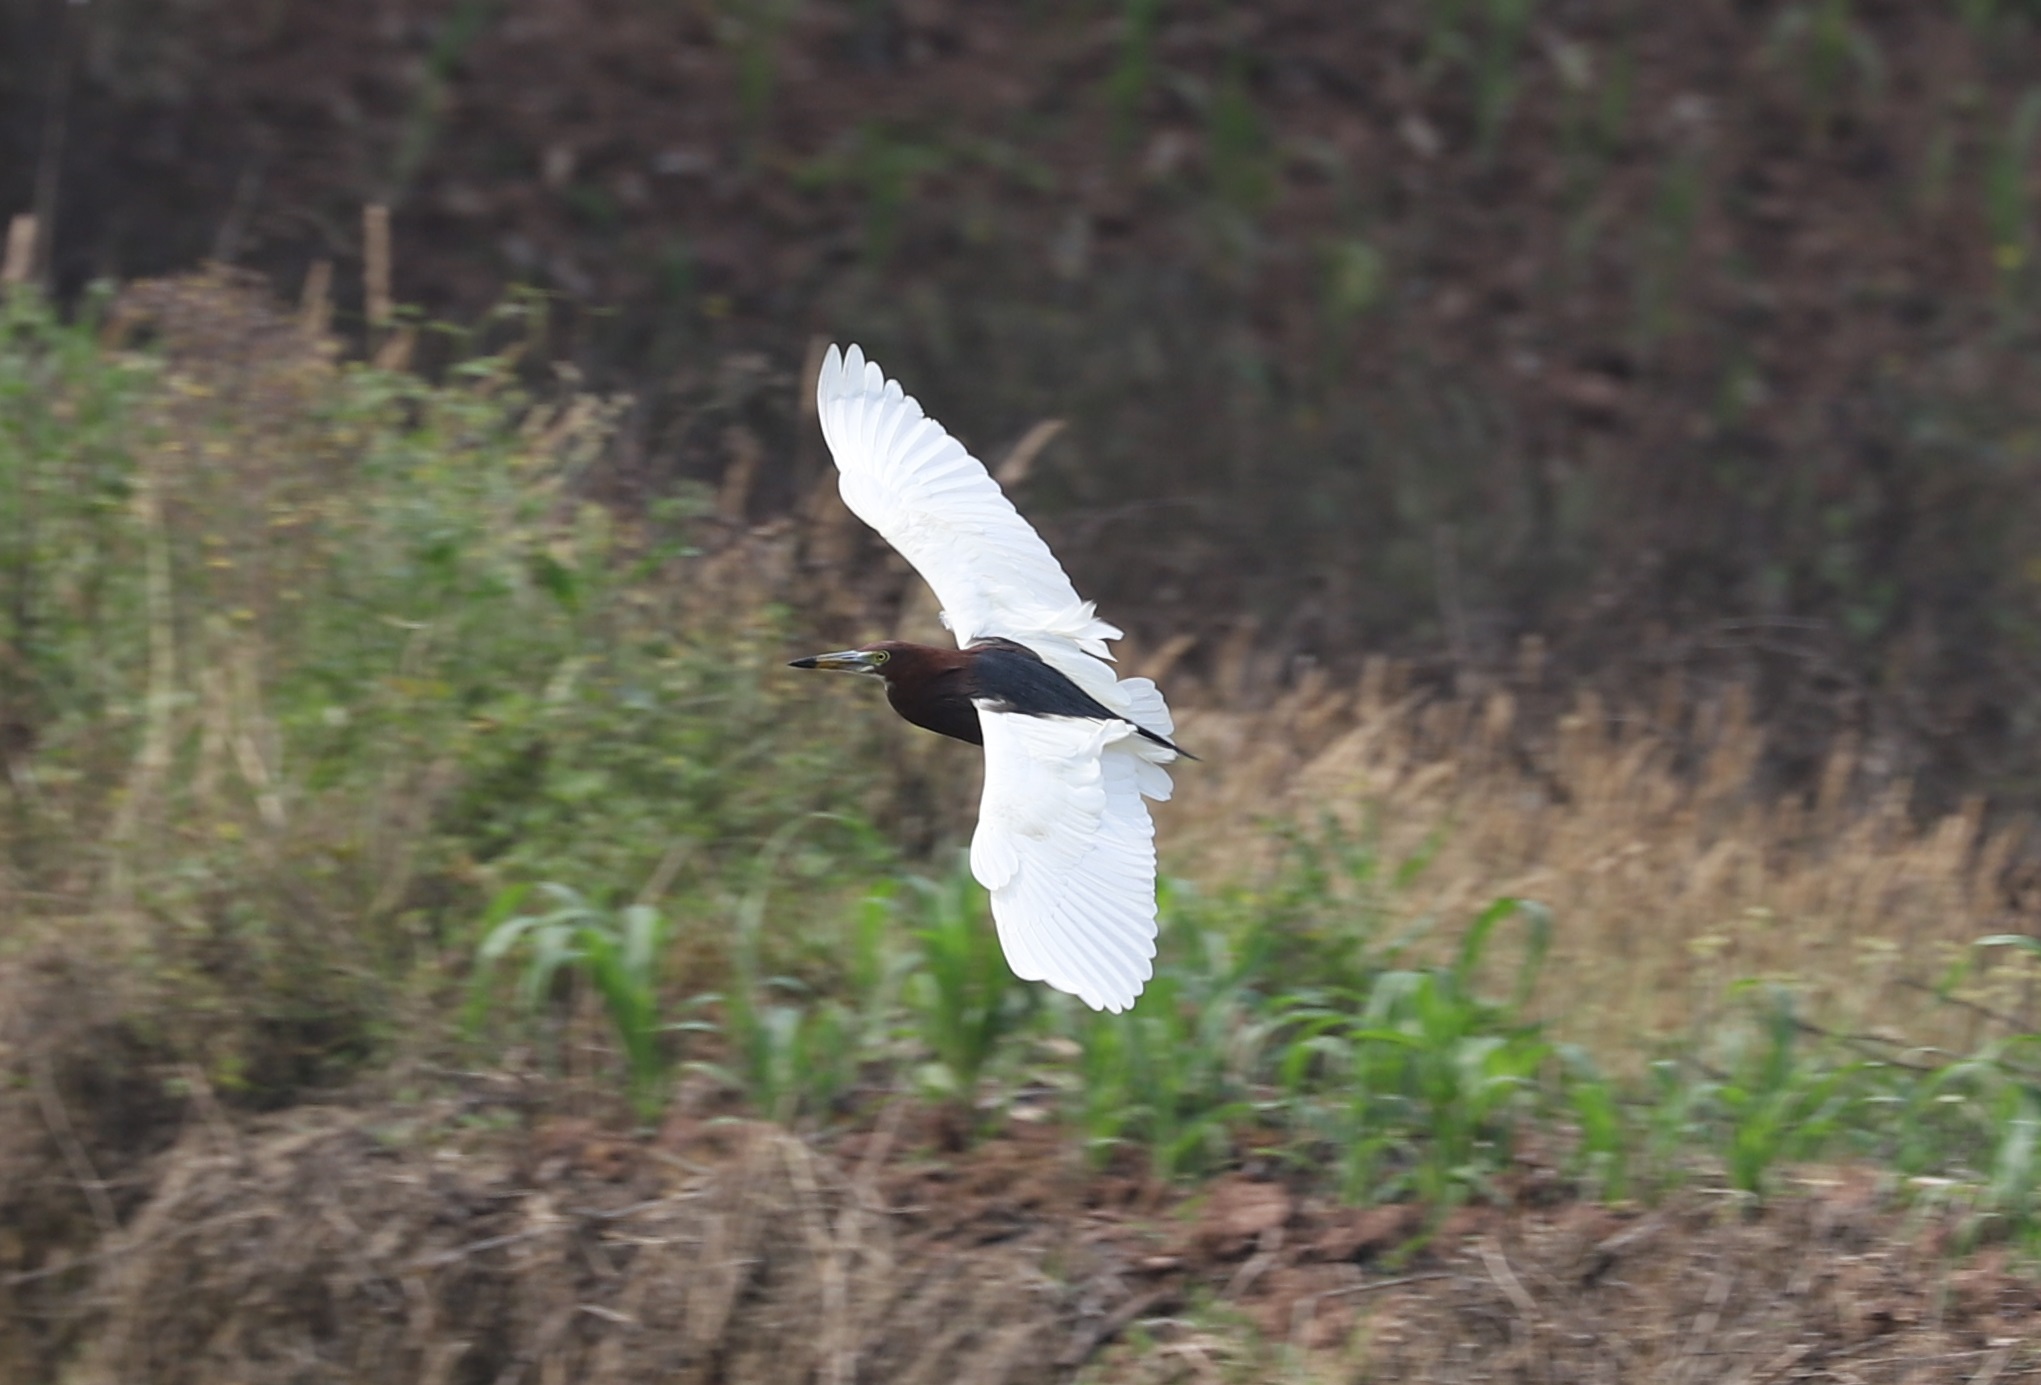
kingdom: Animalia
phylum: Chordata
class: Aves
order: Pelecaniformes
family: Ardeidae
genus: Ardeola
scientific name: Ardeola bacchus
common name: Chinese pond heron
